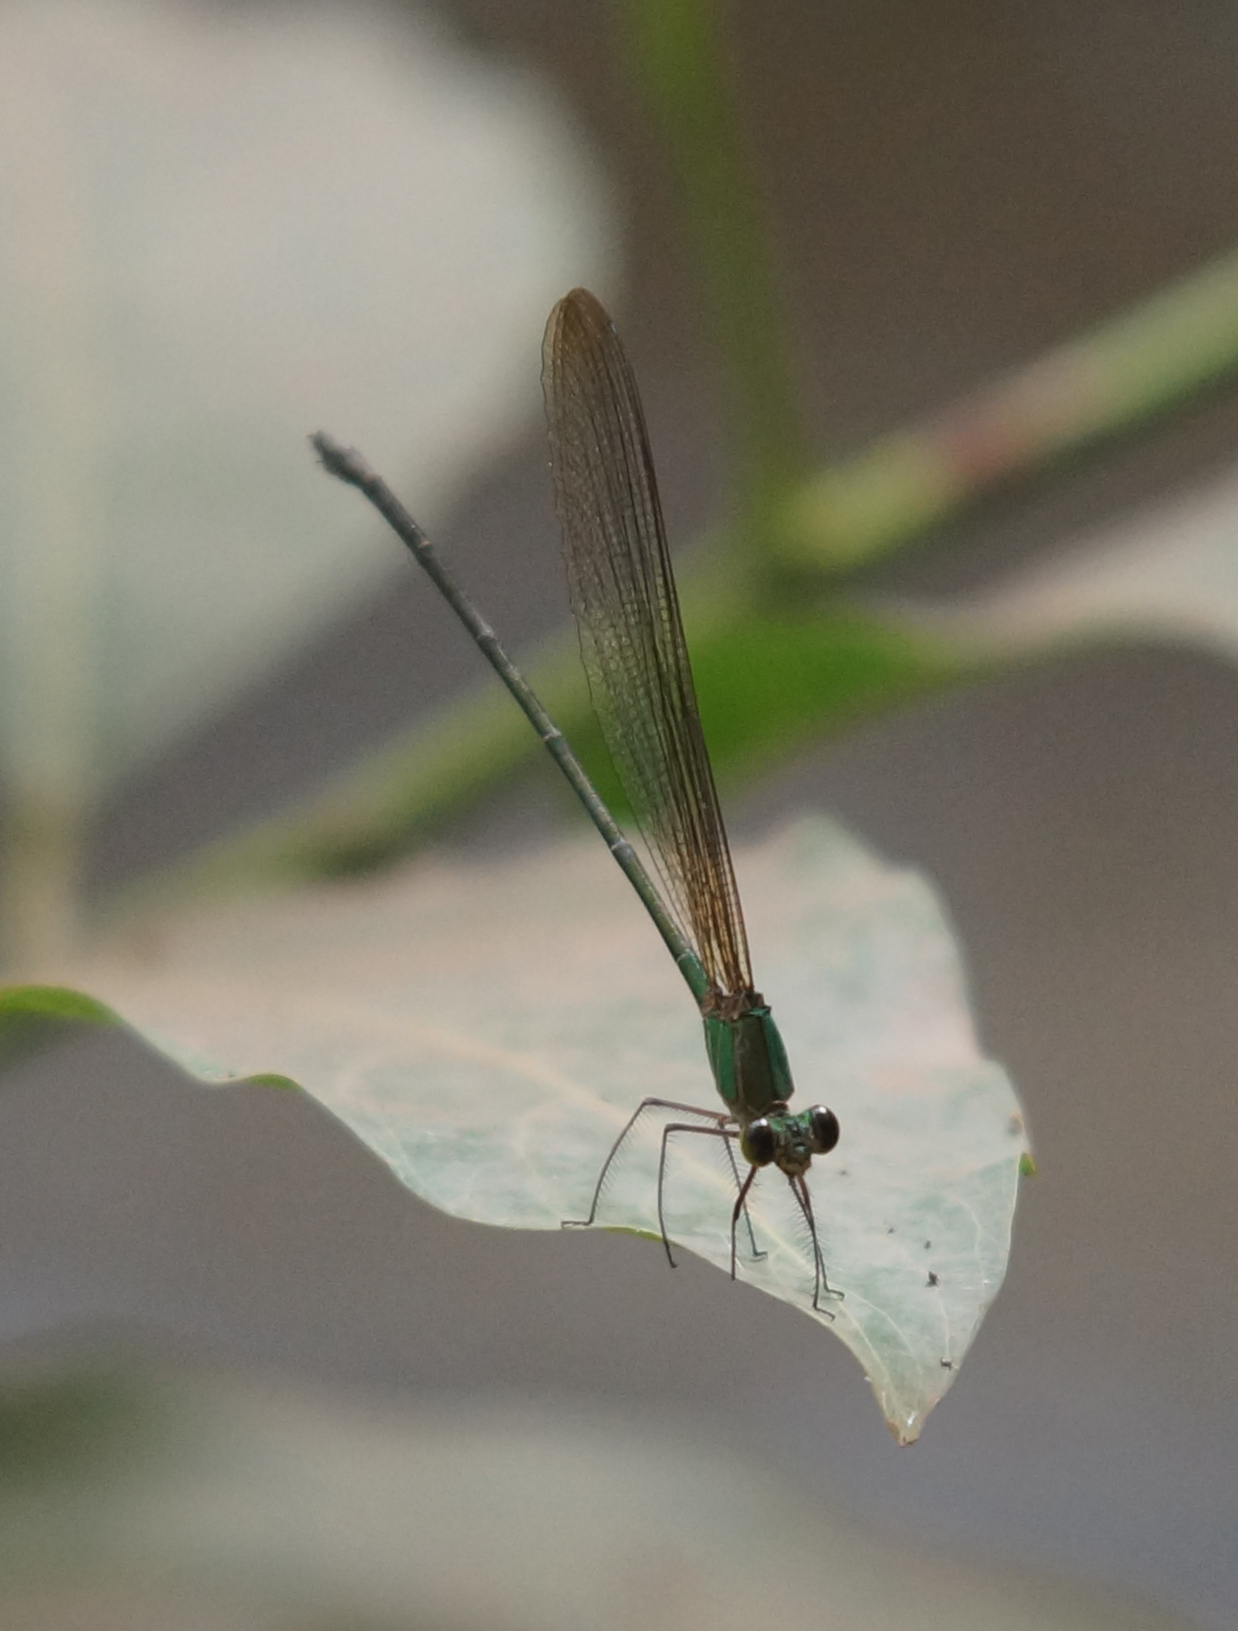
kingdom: Animalia
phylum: Arthropoda
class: Insecta
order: Odonata
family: Calopterygidae
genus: Vestalis
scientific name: Vestalis gracilis
